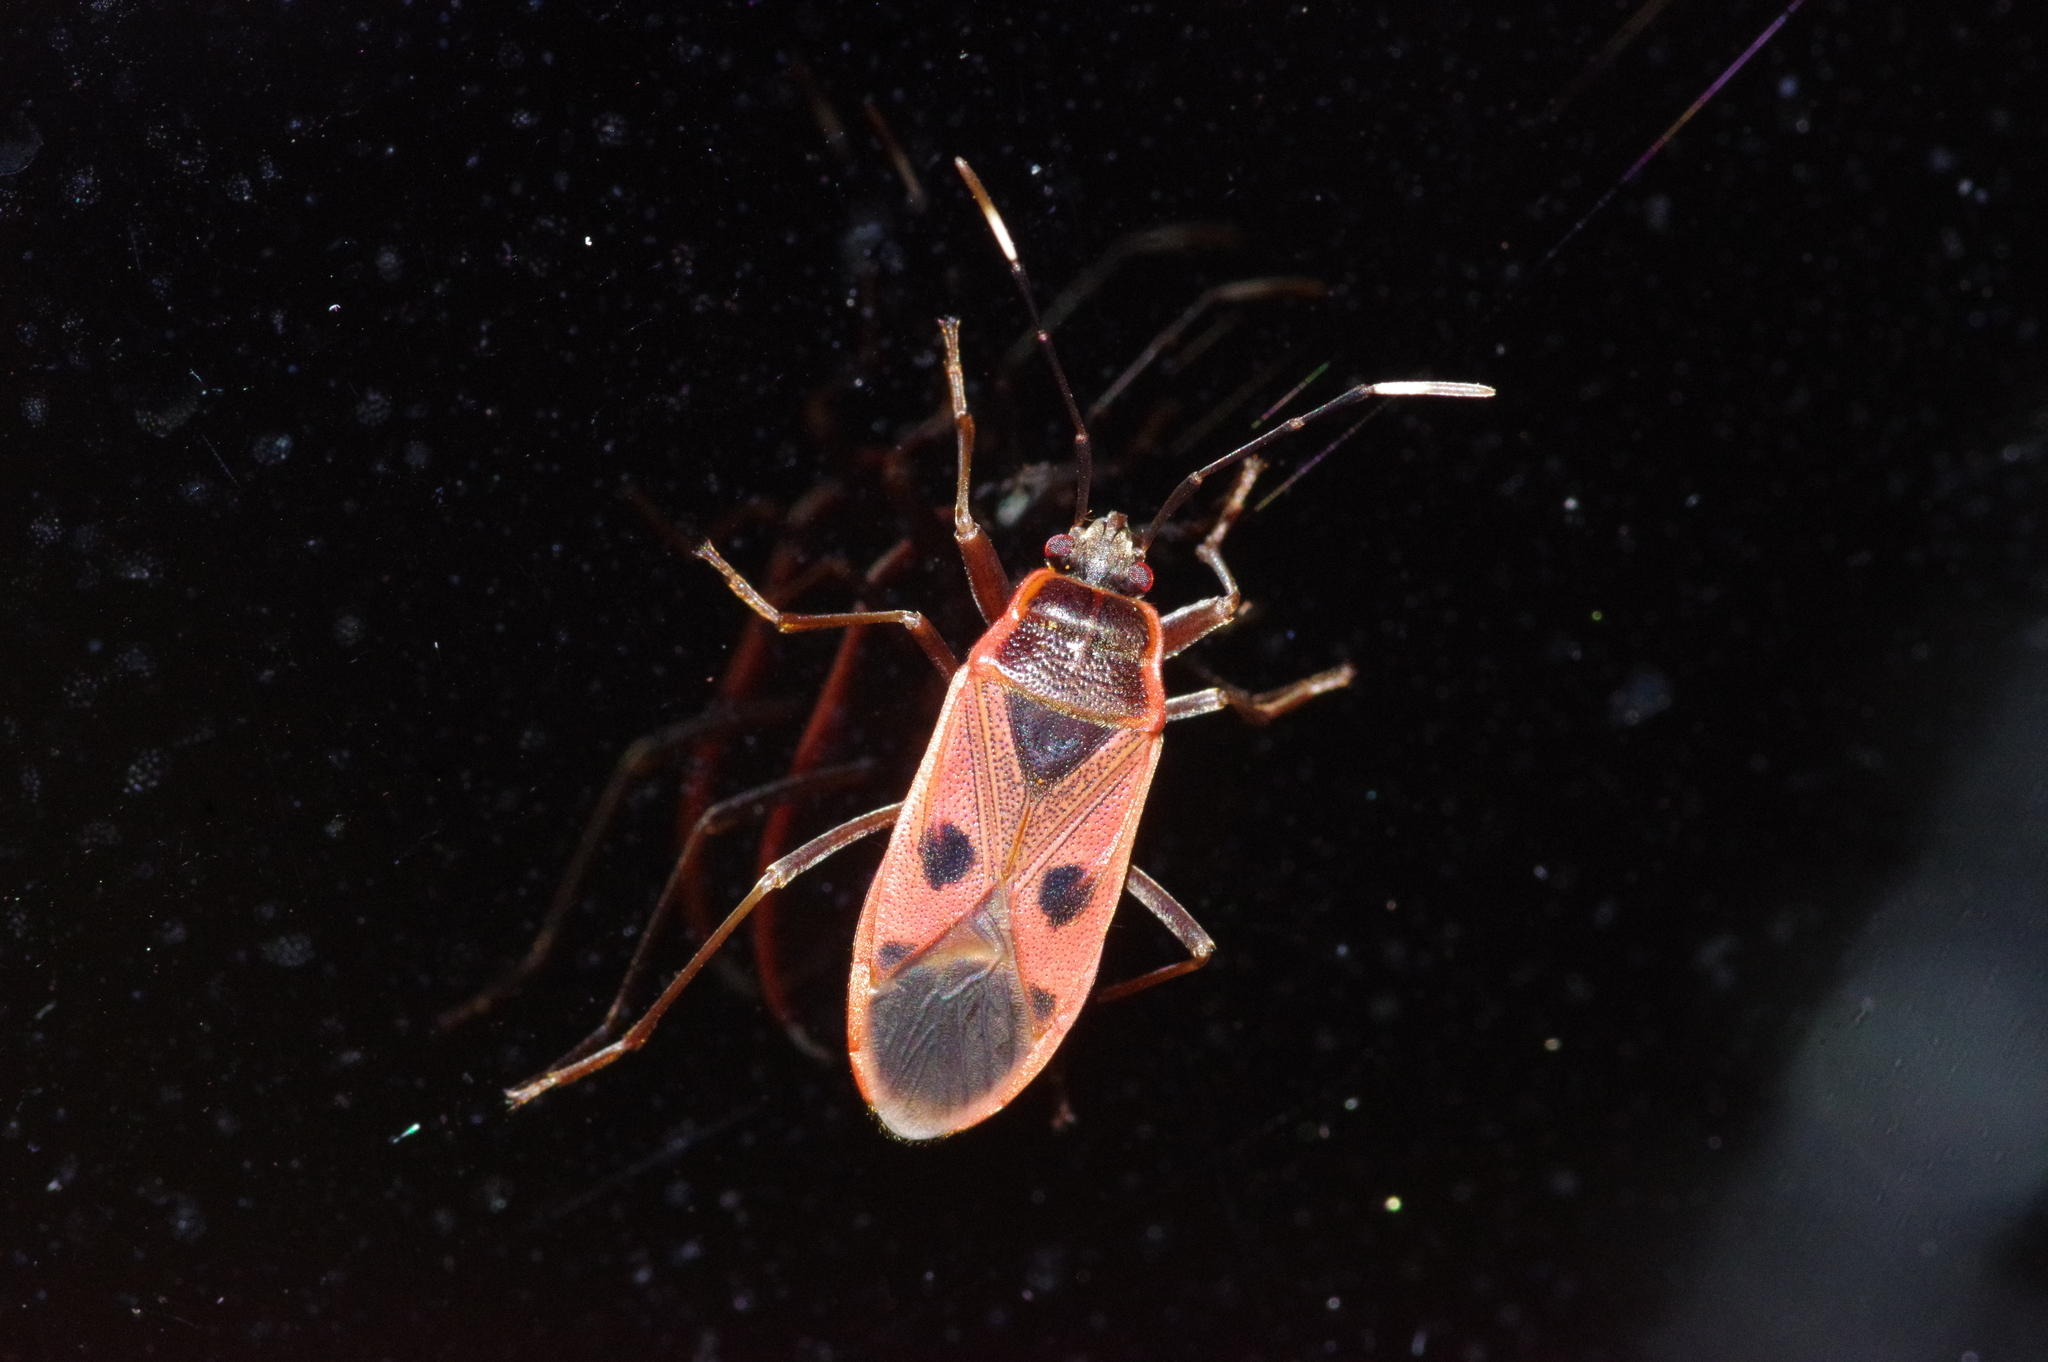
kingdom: Animalia
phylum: Arthropoda
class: Insecta
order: Hemiptera
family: Largidae
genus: Physopelta
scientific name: Physopelta parviceps
